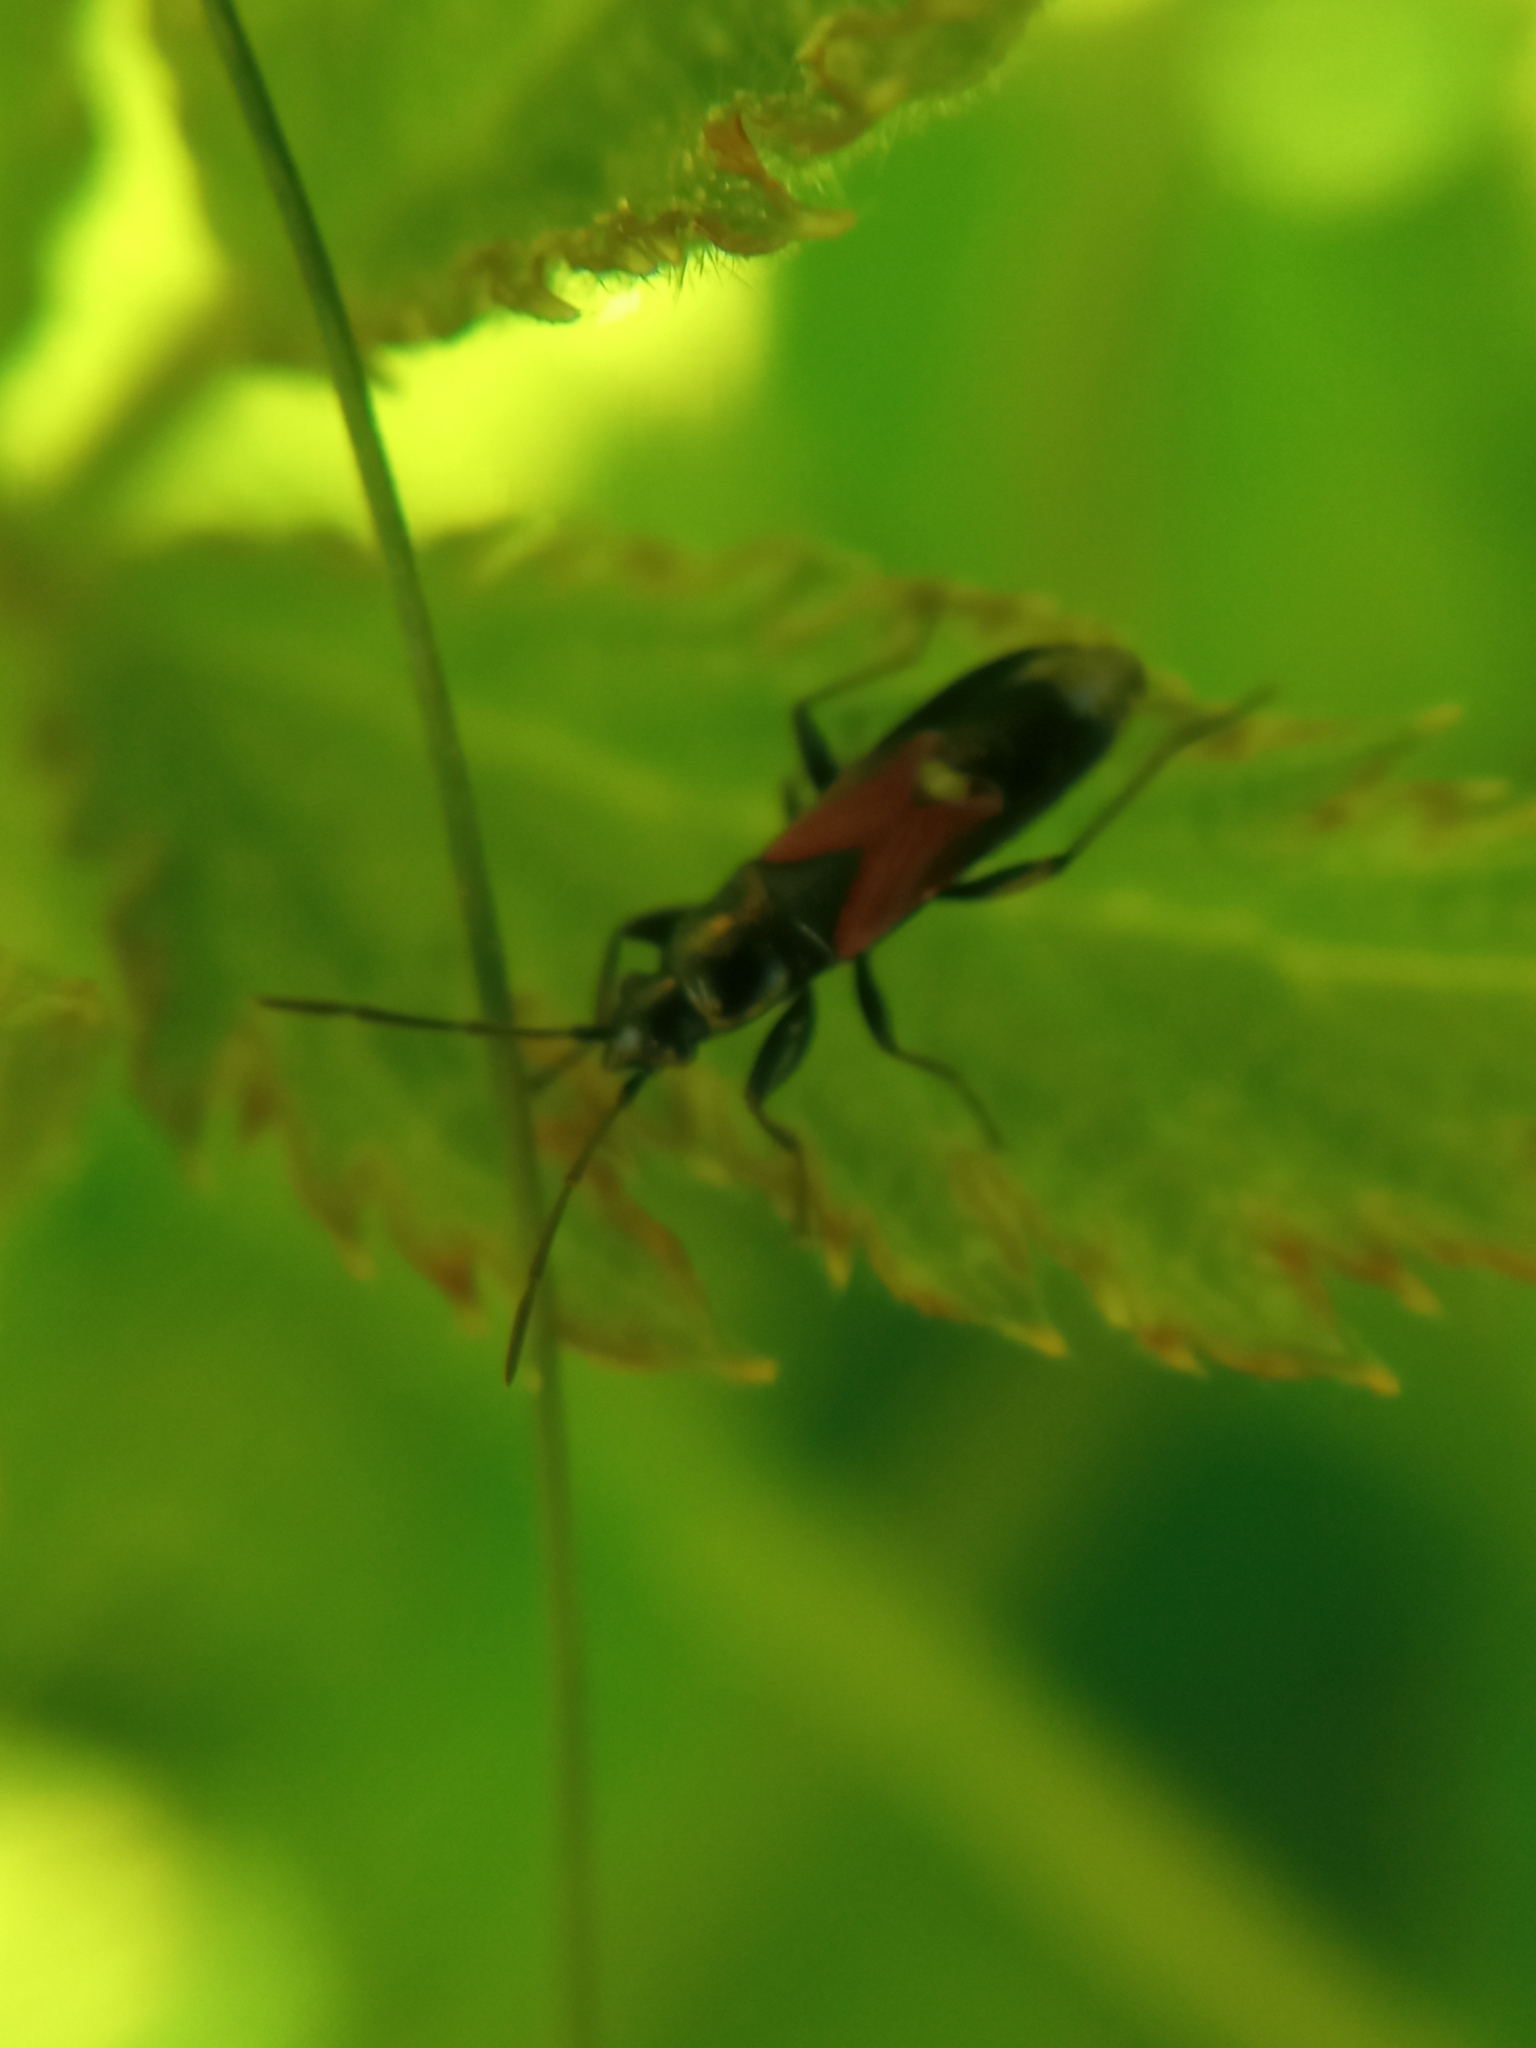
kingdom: Animalia
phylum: Arthropoda
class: Insecta
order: Hemiptera
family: Rhyparochromidae
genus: Pterotmetus
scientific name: Pterotmetus staphyliniformis
